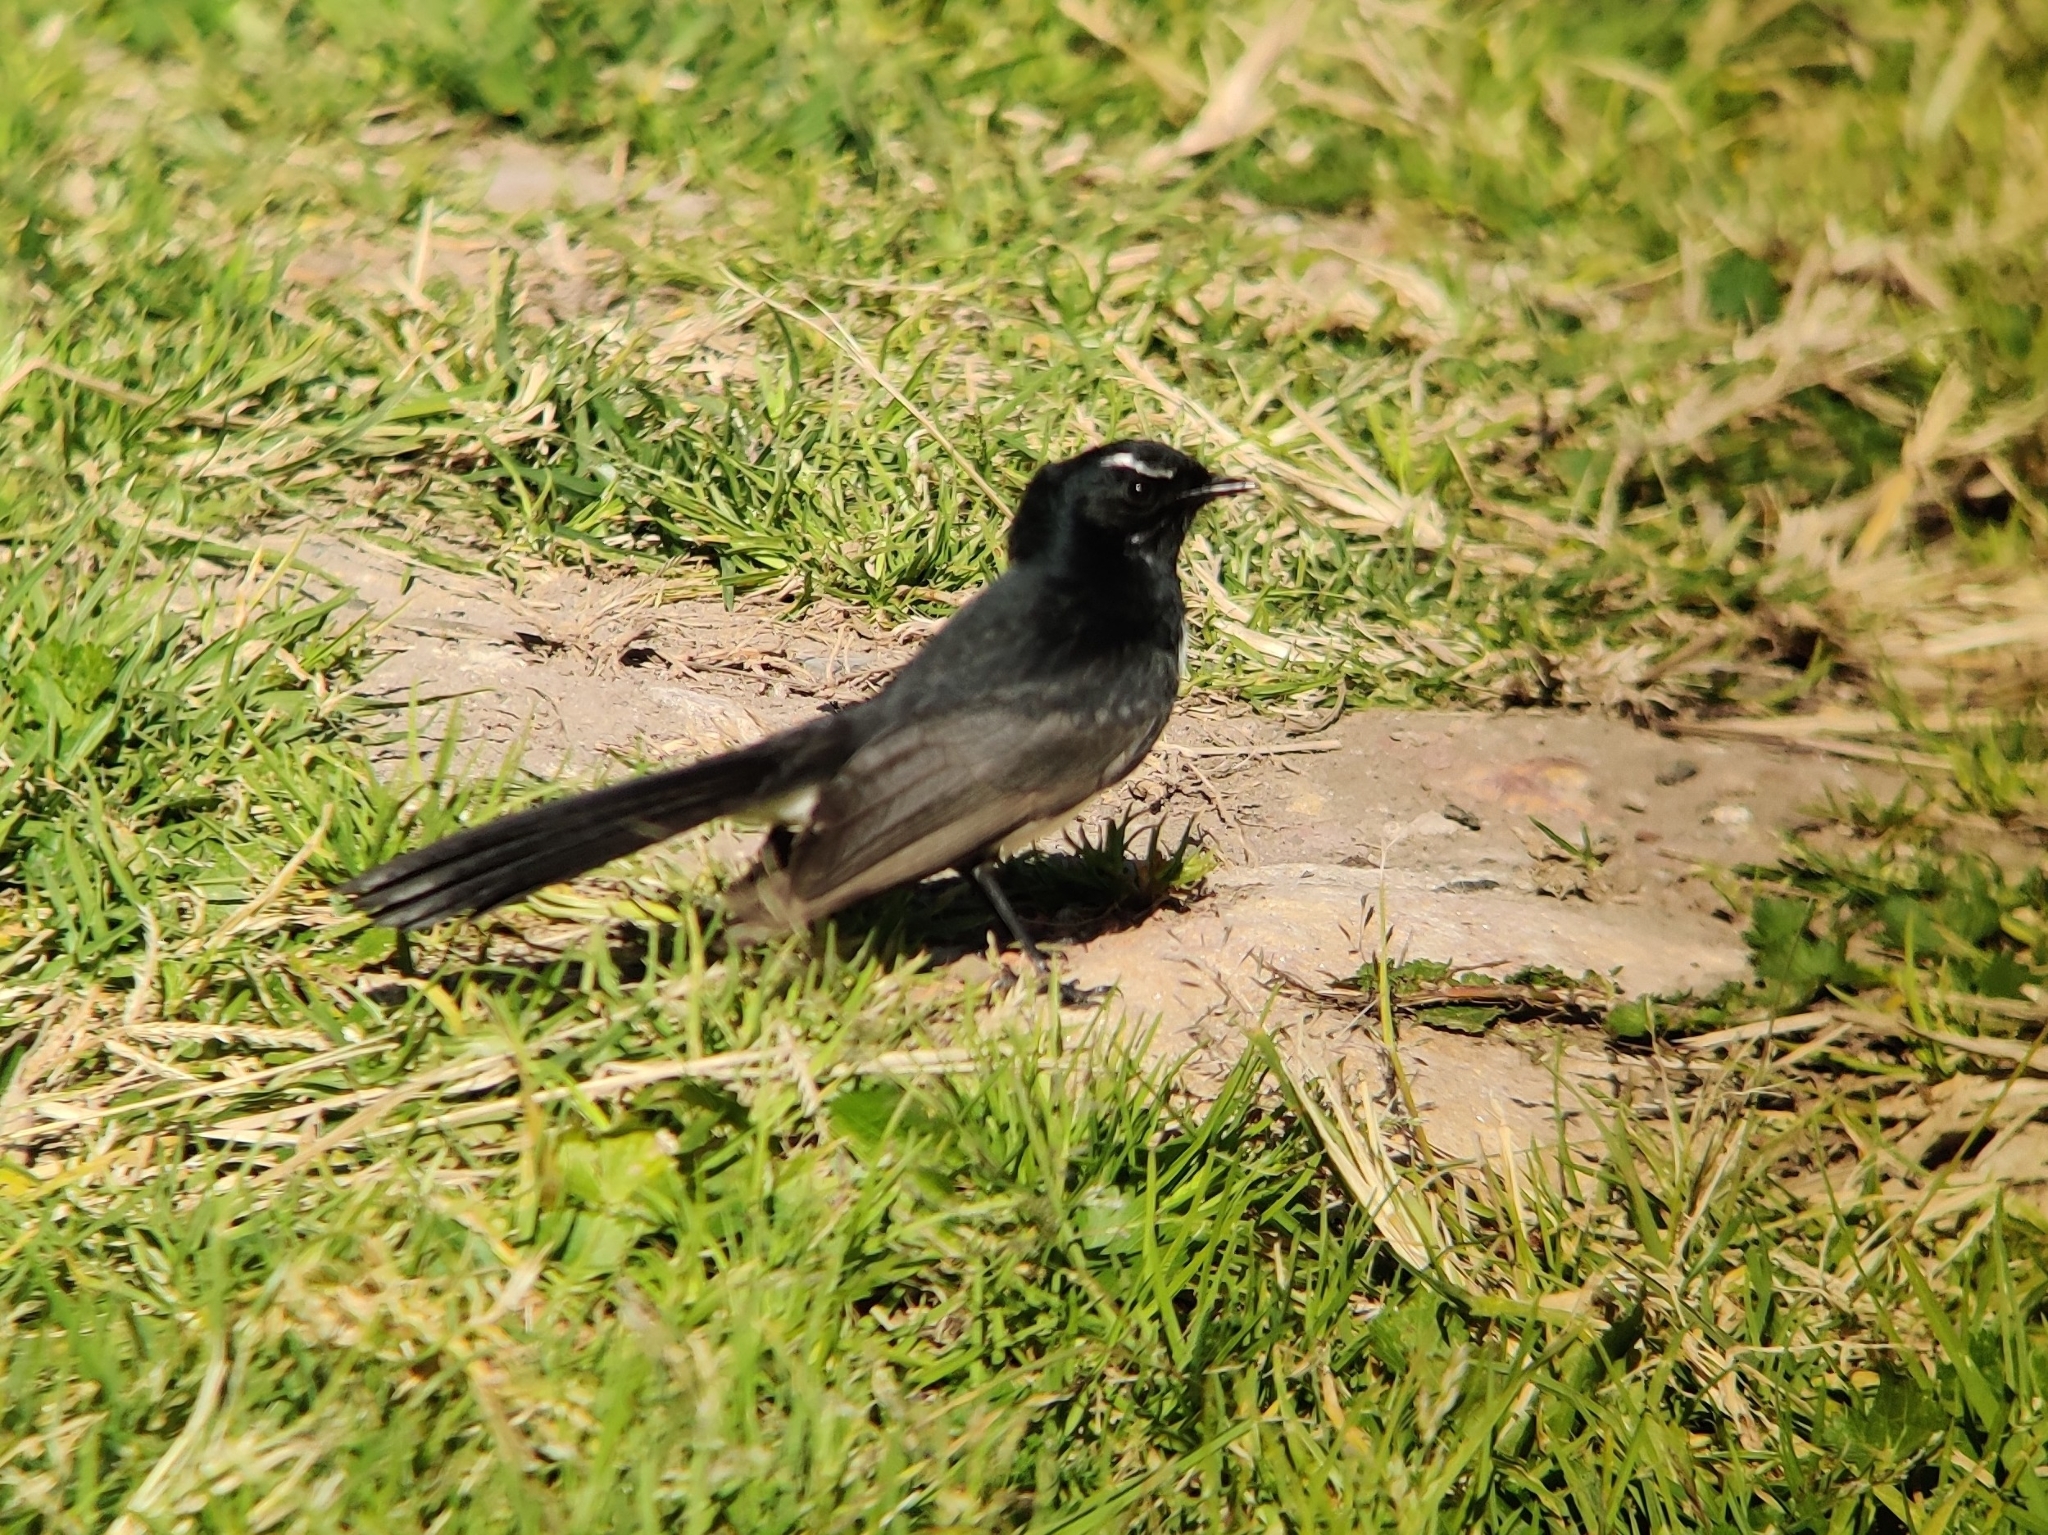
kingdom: Animalia
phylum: Chordata
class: Aves
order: Passeriformes
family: Rhipiduridae
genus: Rhipidura
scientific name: Rhipidura leucophrys
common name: Willie wagtail
